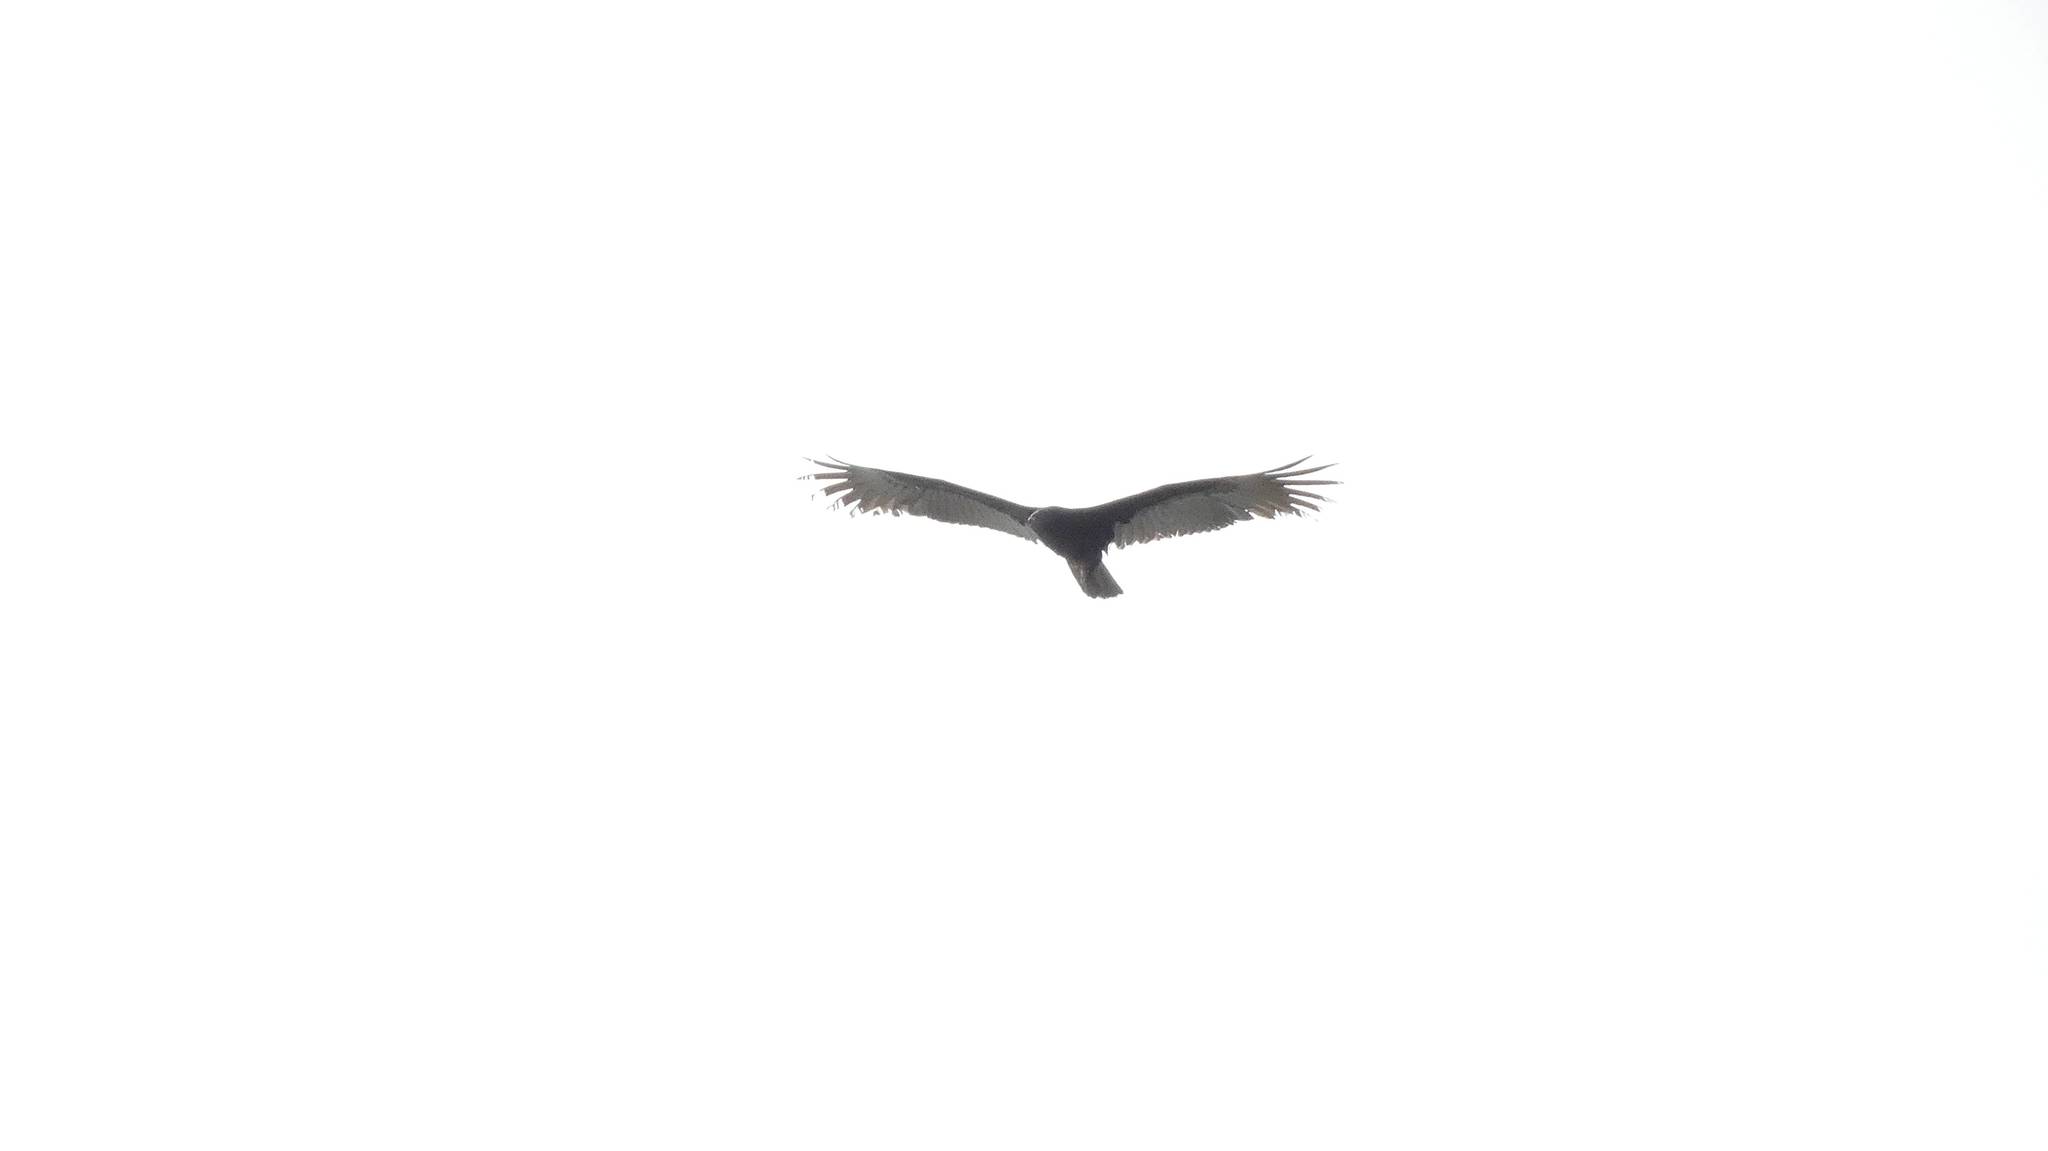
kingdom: Animalia
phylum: Chordata
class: Aves
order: Accipitriformes
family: Cathartidae
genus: Cathartes
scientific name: Cathartes aura
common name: Turkey vulture
